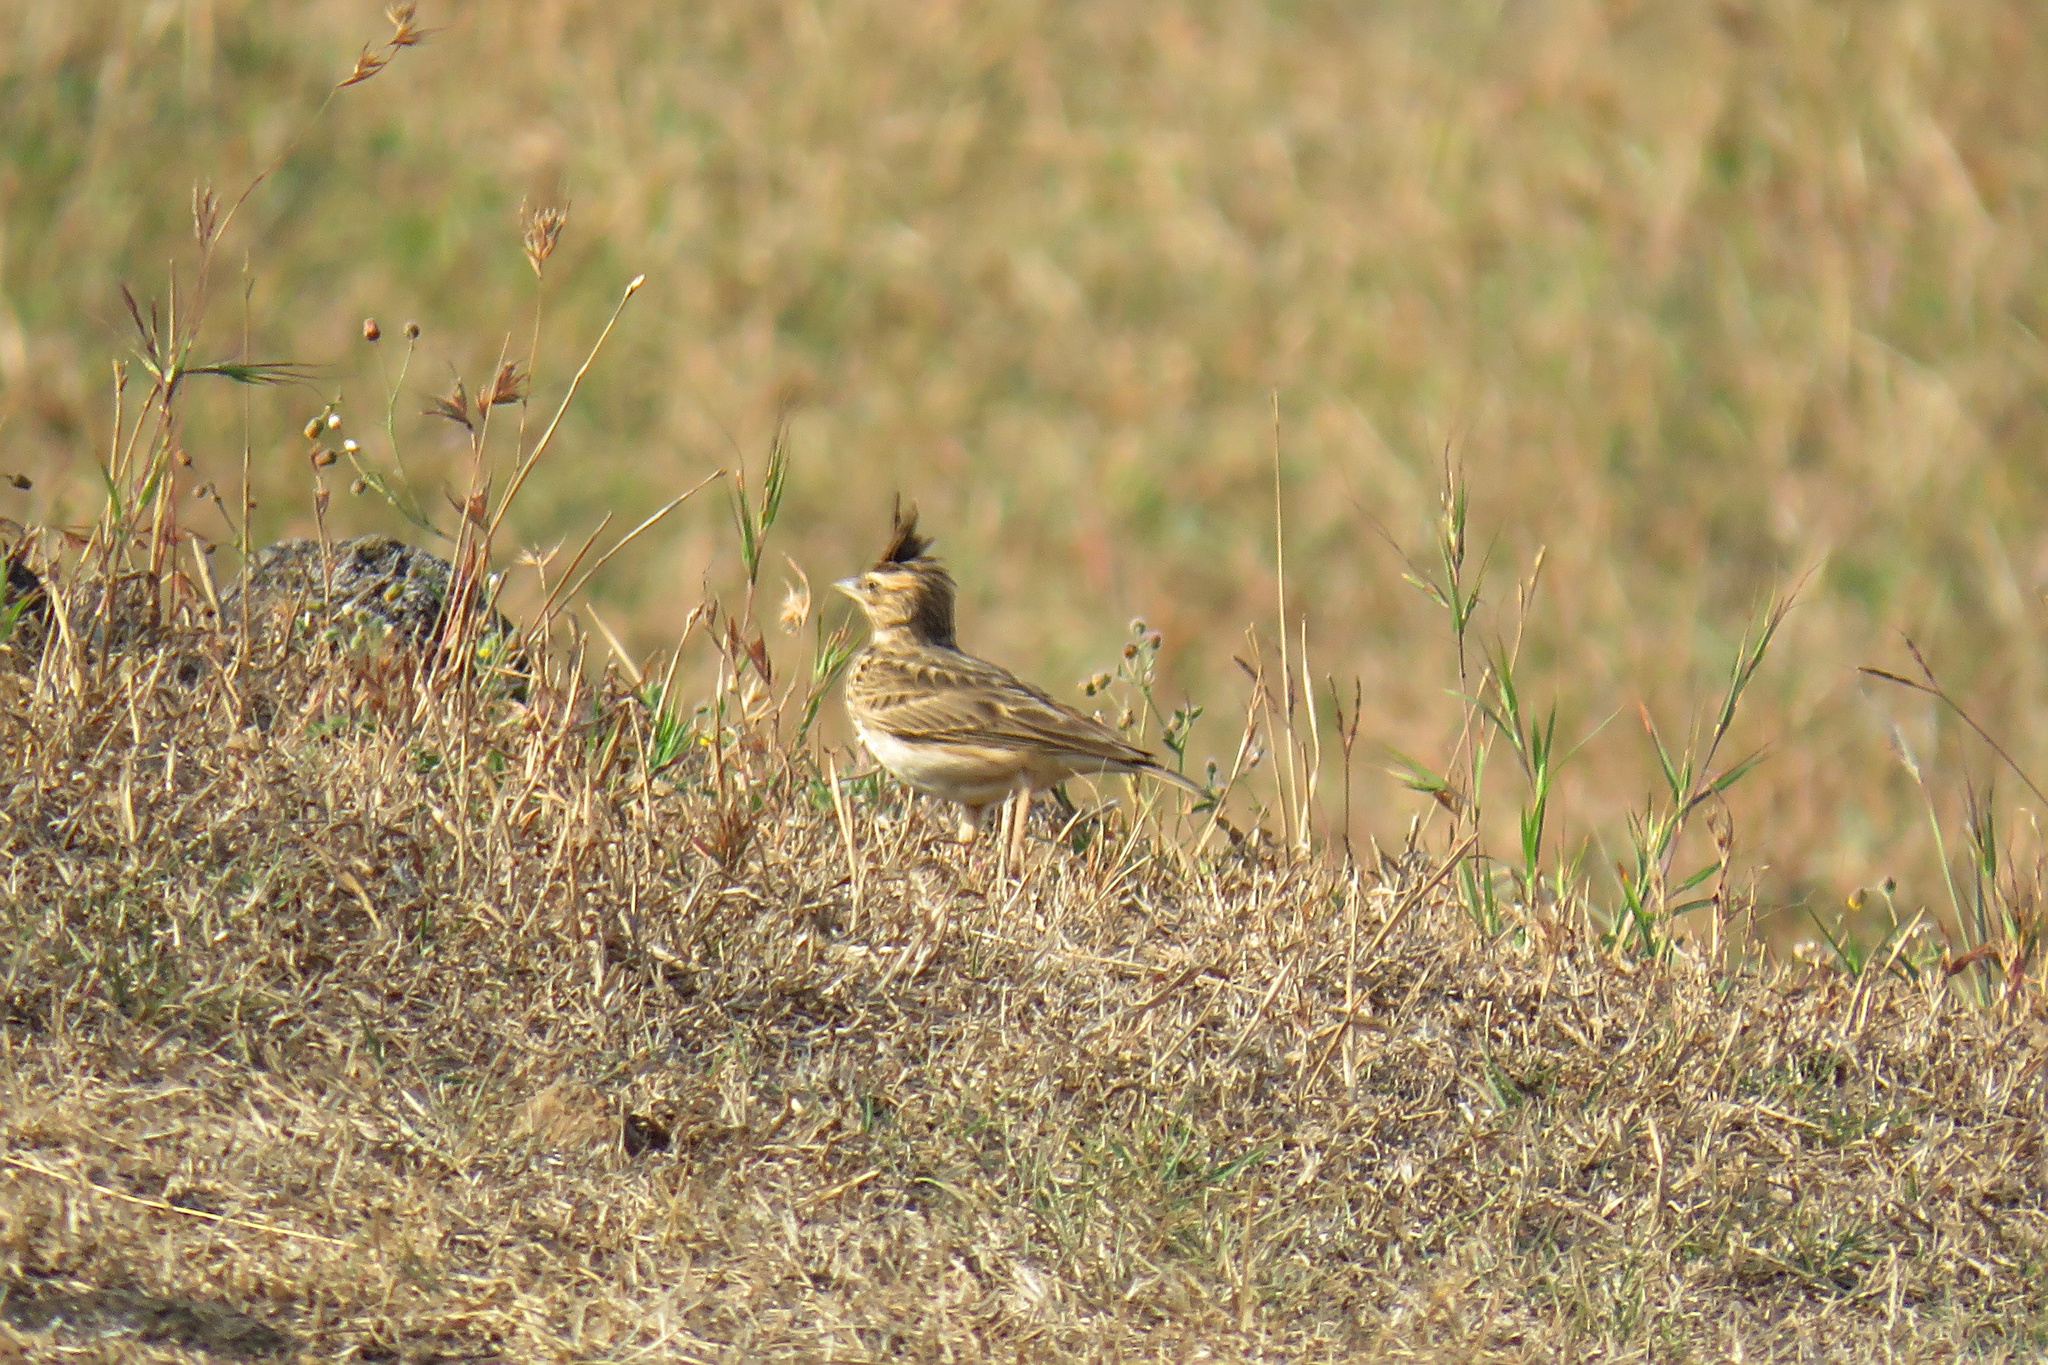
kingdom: Animalia
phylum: Chordata
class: Aves
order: Passeriformes
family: Alaudidae
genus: Galerida
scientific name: Galerida malabarica
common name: Malabar lark
